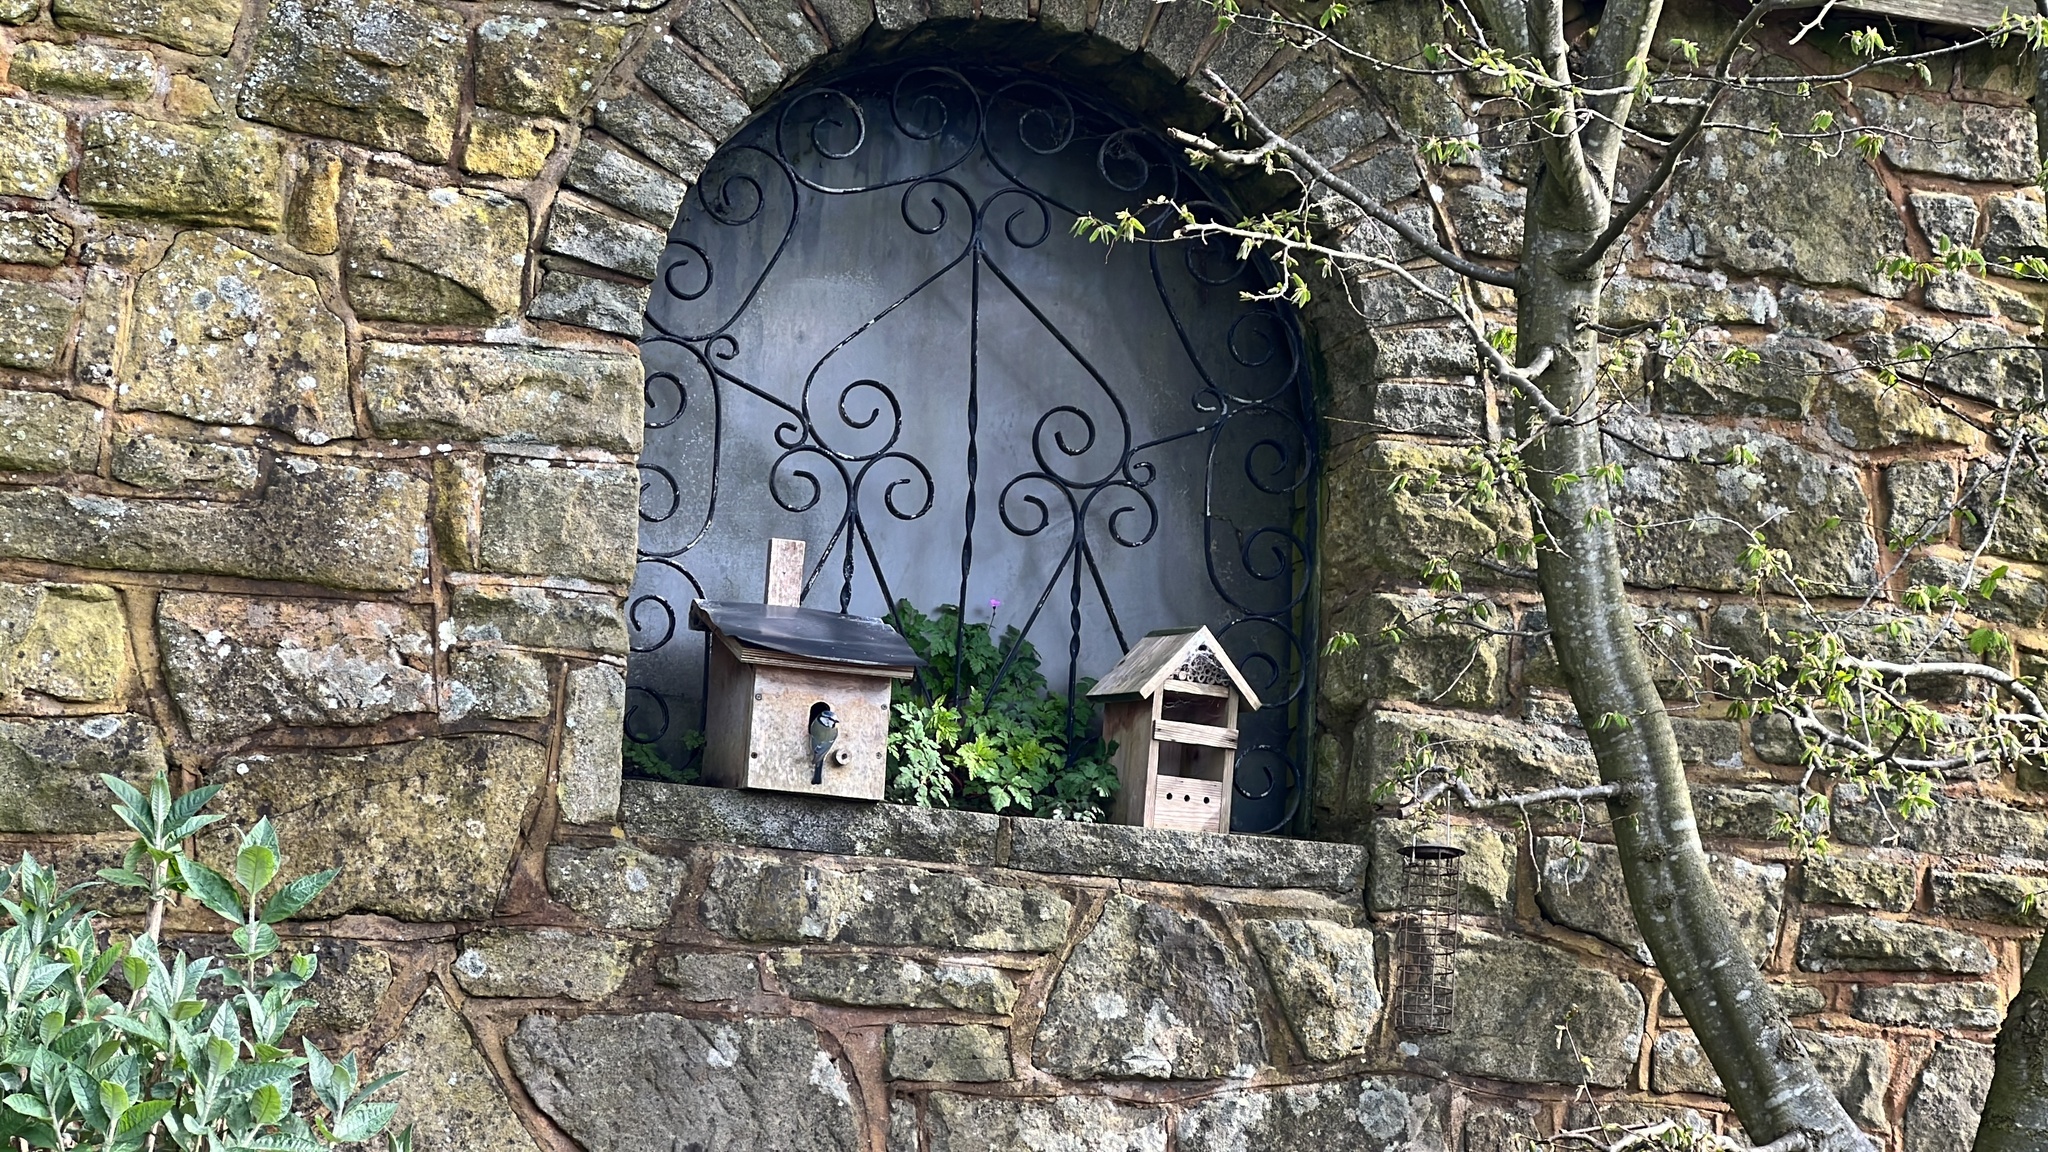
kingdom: Animalia
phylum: Chordata
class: Aves
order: Passeriformes
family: Paridae
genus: Cyanistes
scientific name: Cyanistes caeruleus
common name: Eurasian blue tit
